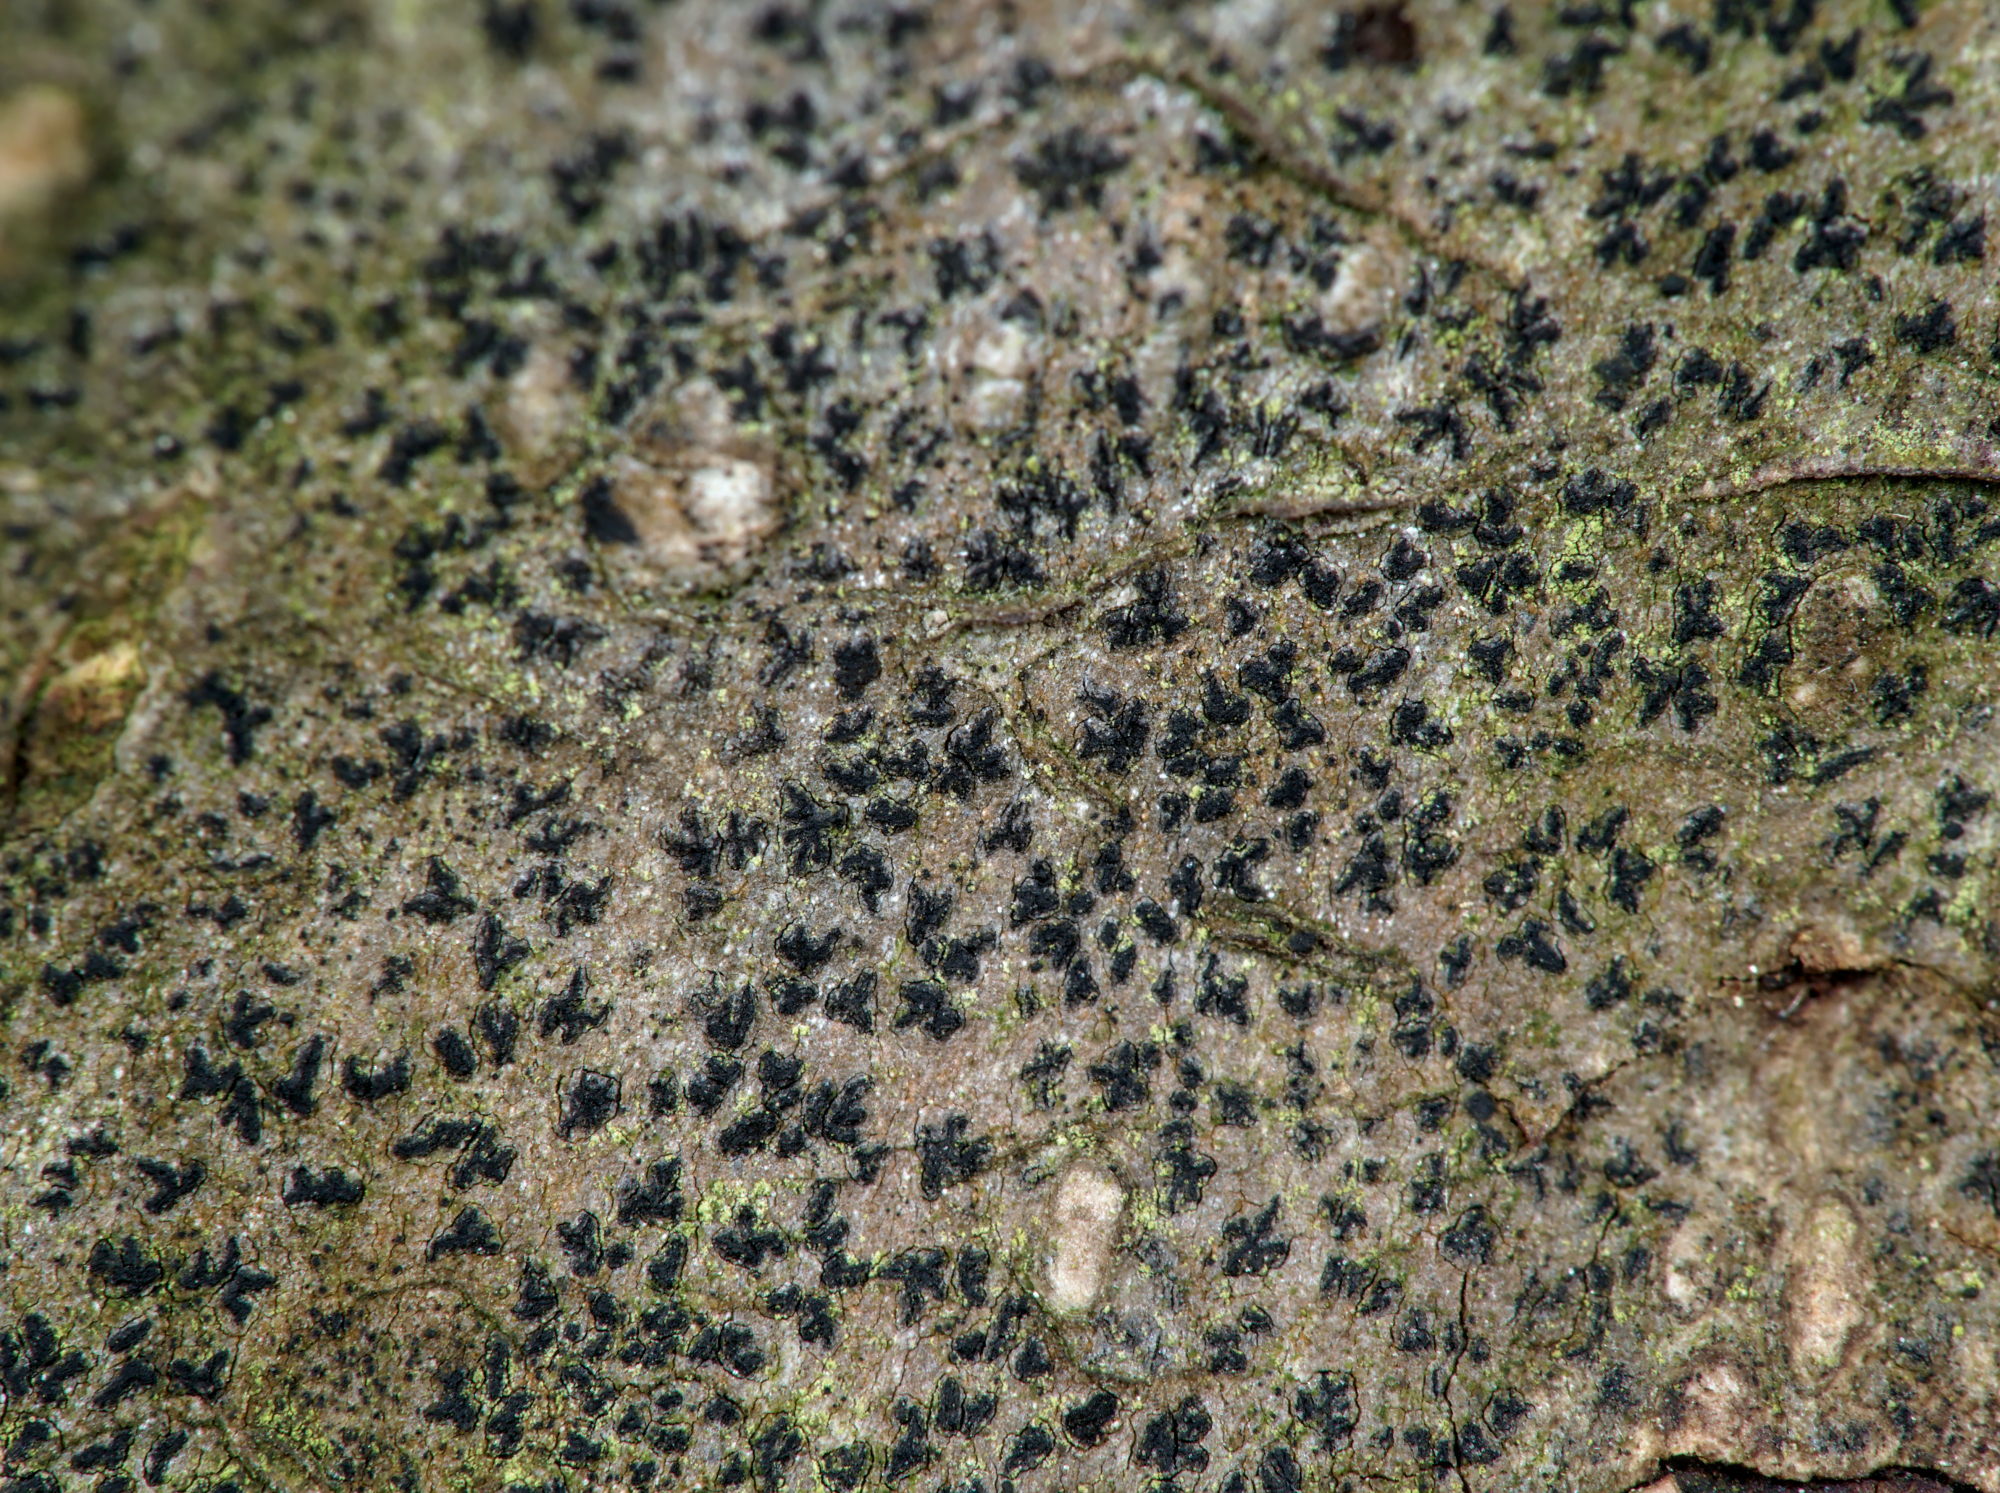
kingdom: Fungi
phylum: Ascomycota
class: Arthoniomycetes
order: Arthoniales
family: Roccellaceae
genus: Pseudoschismatomma
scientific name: Pseudoschismatomma rufescens
